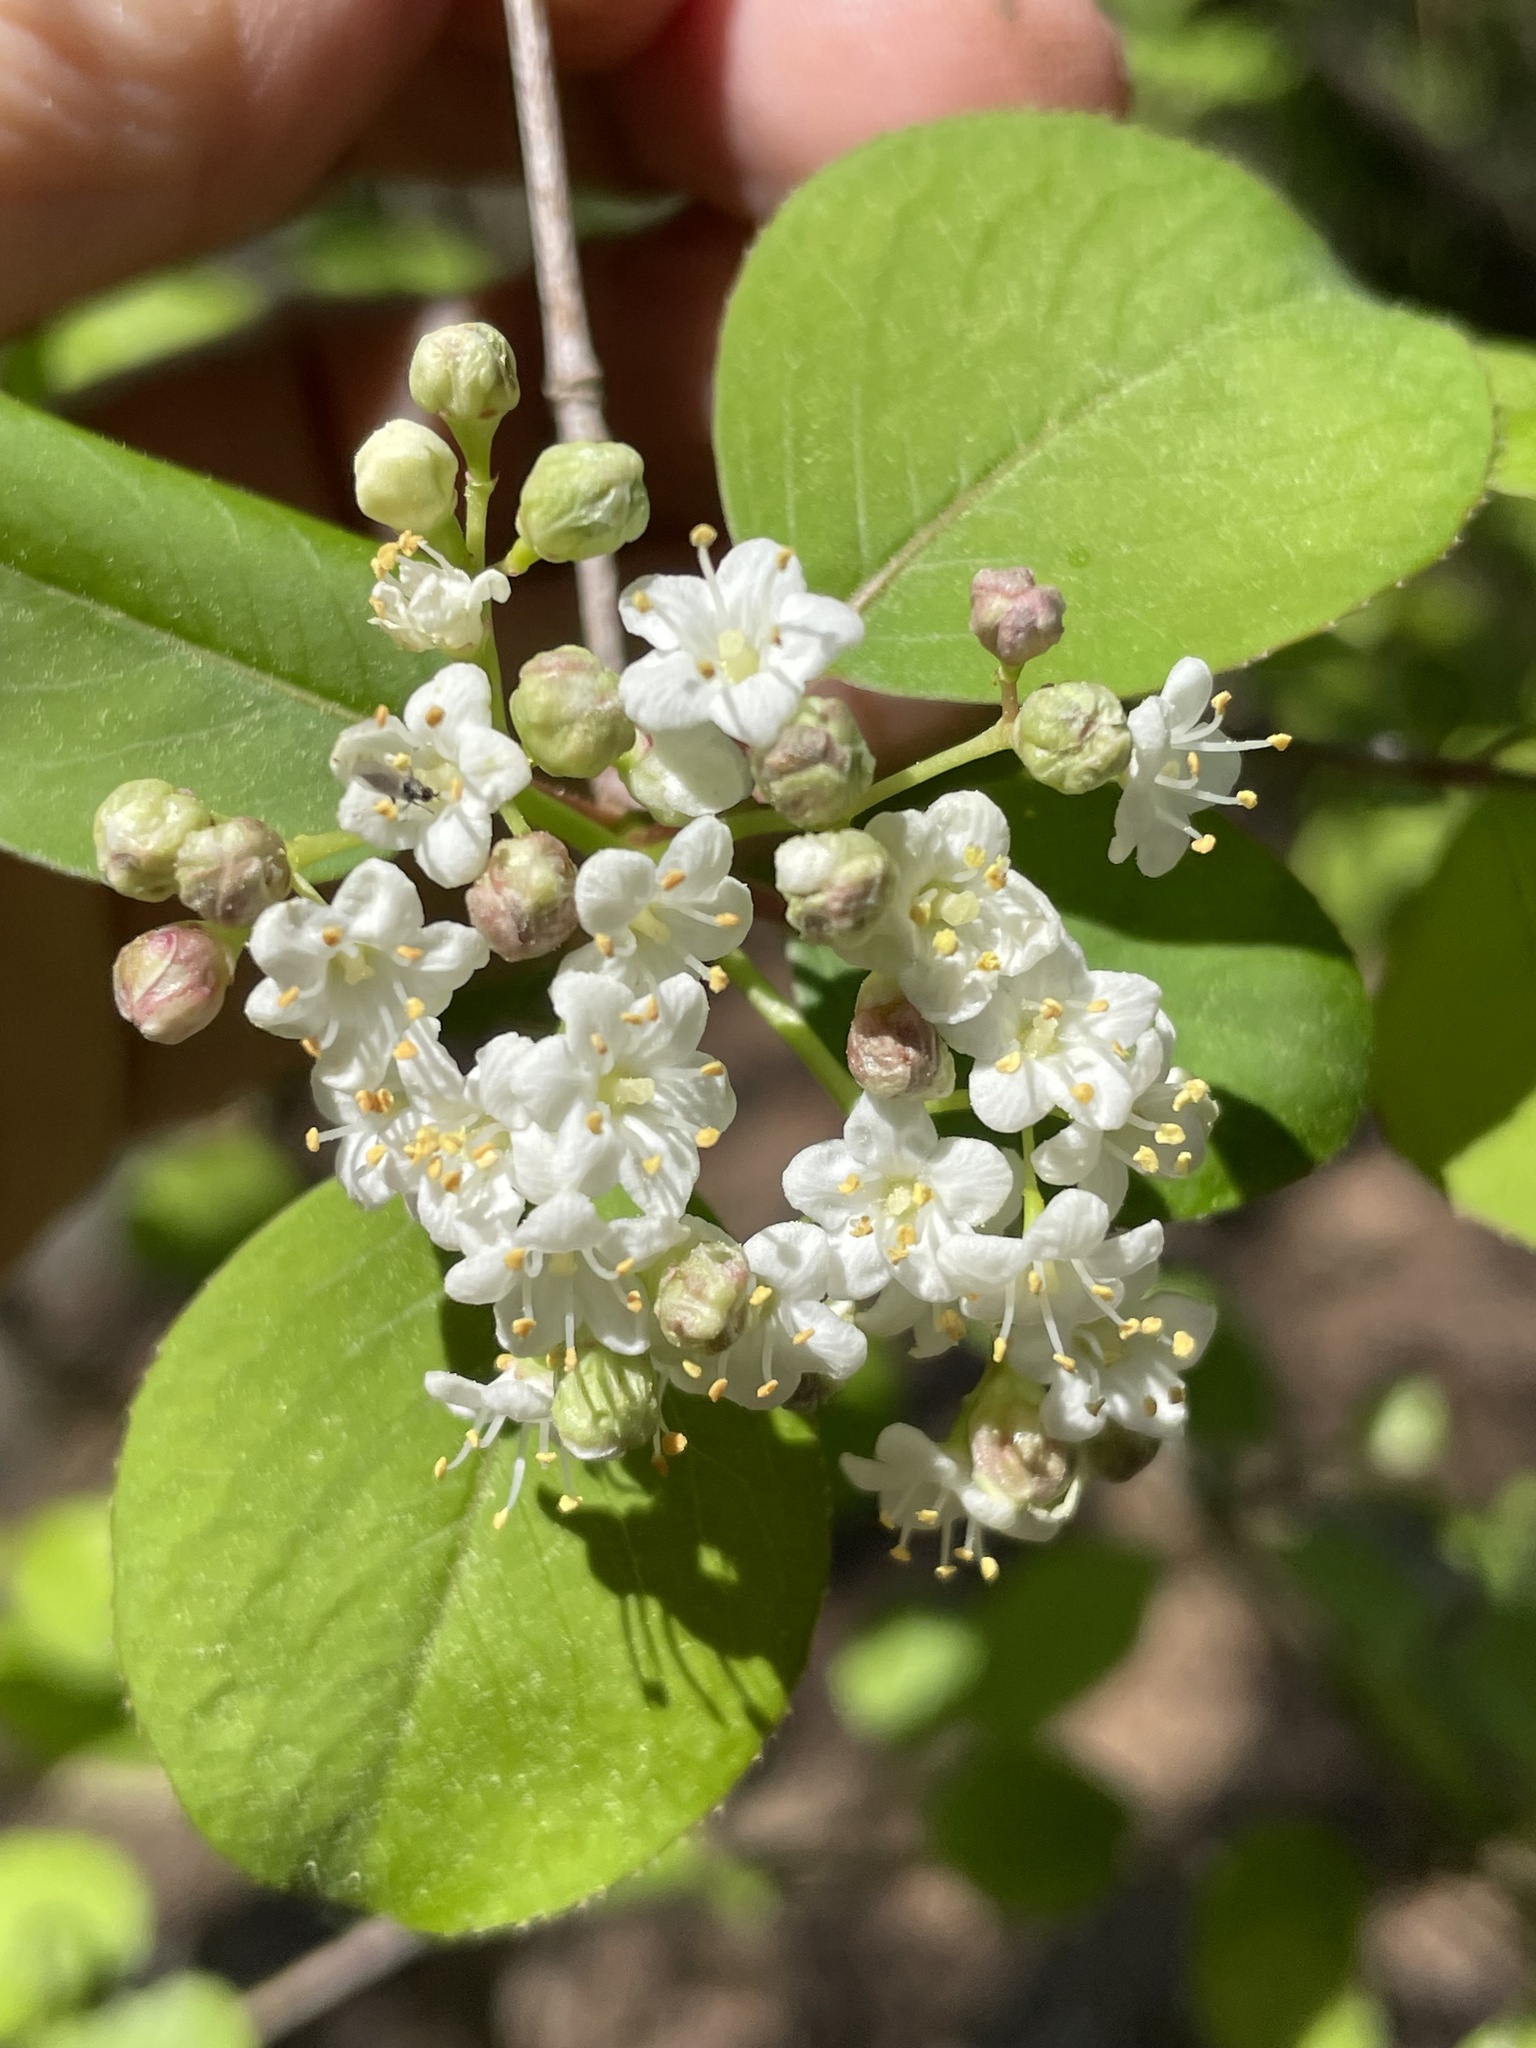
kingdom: Plantae
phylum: Tracheophyta
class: Magnoliopsida
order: Dipsacales
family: Viburnaceae
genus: Viburnum
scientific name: Viburnum prunifolium
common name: Black haw
